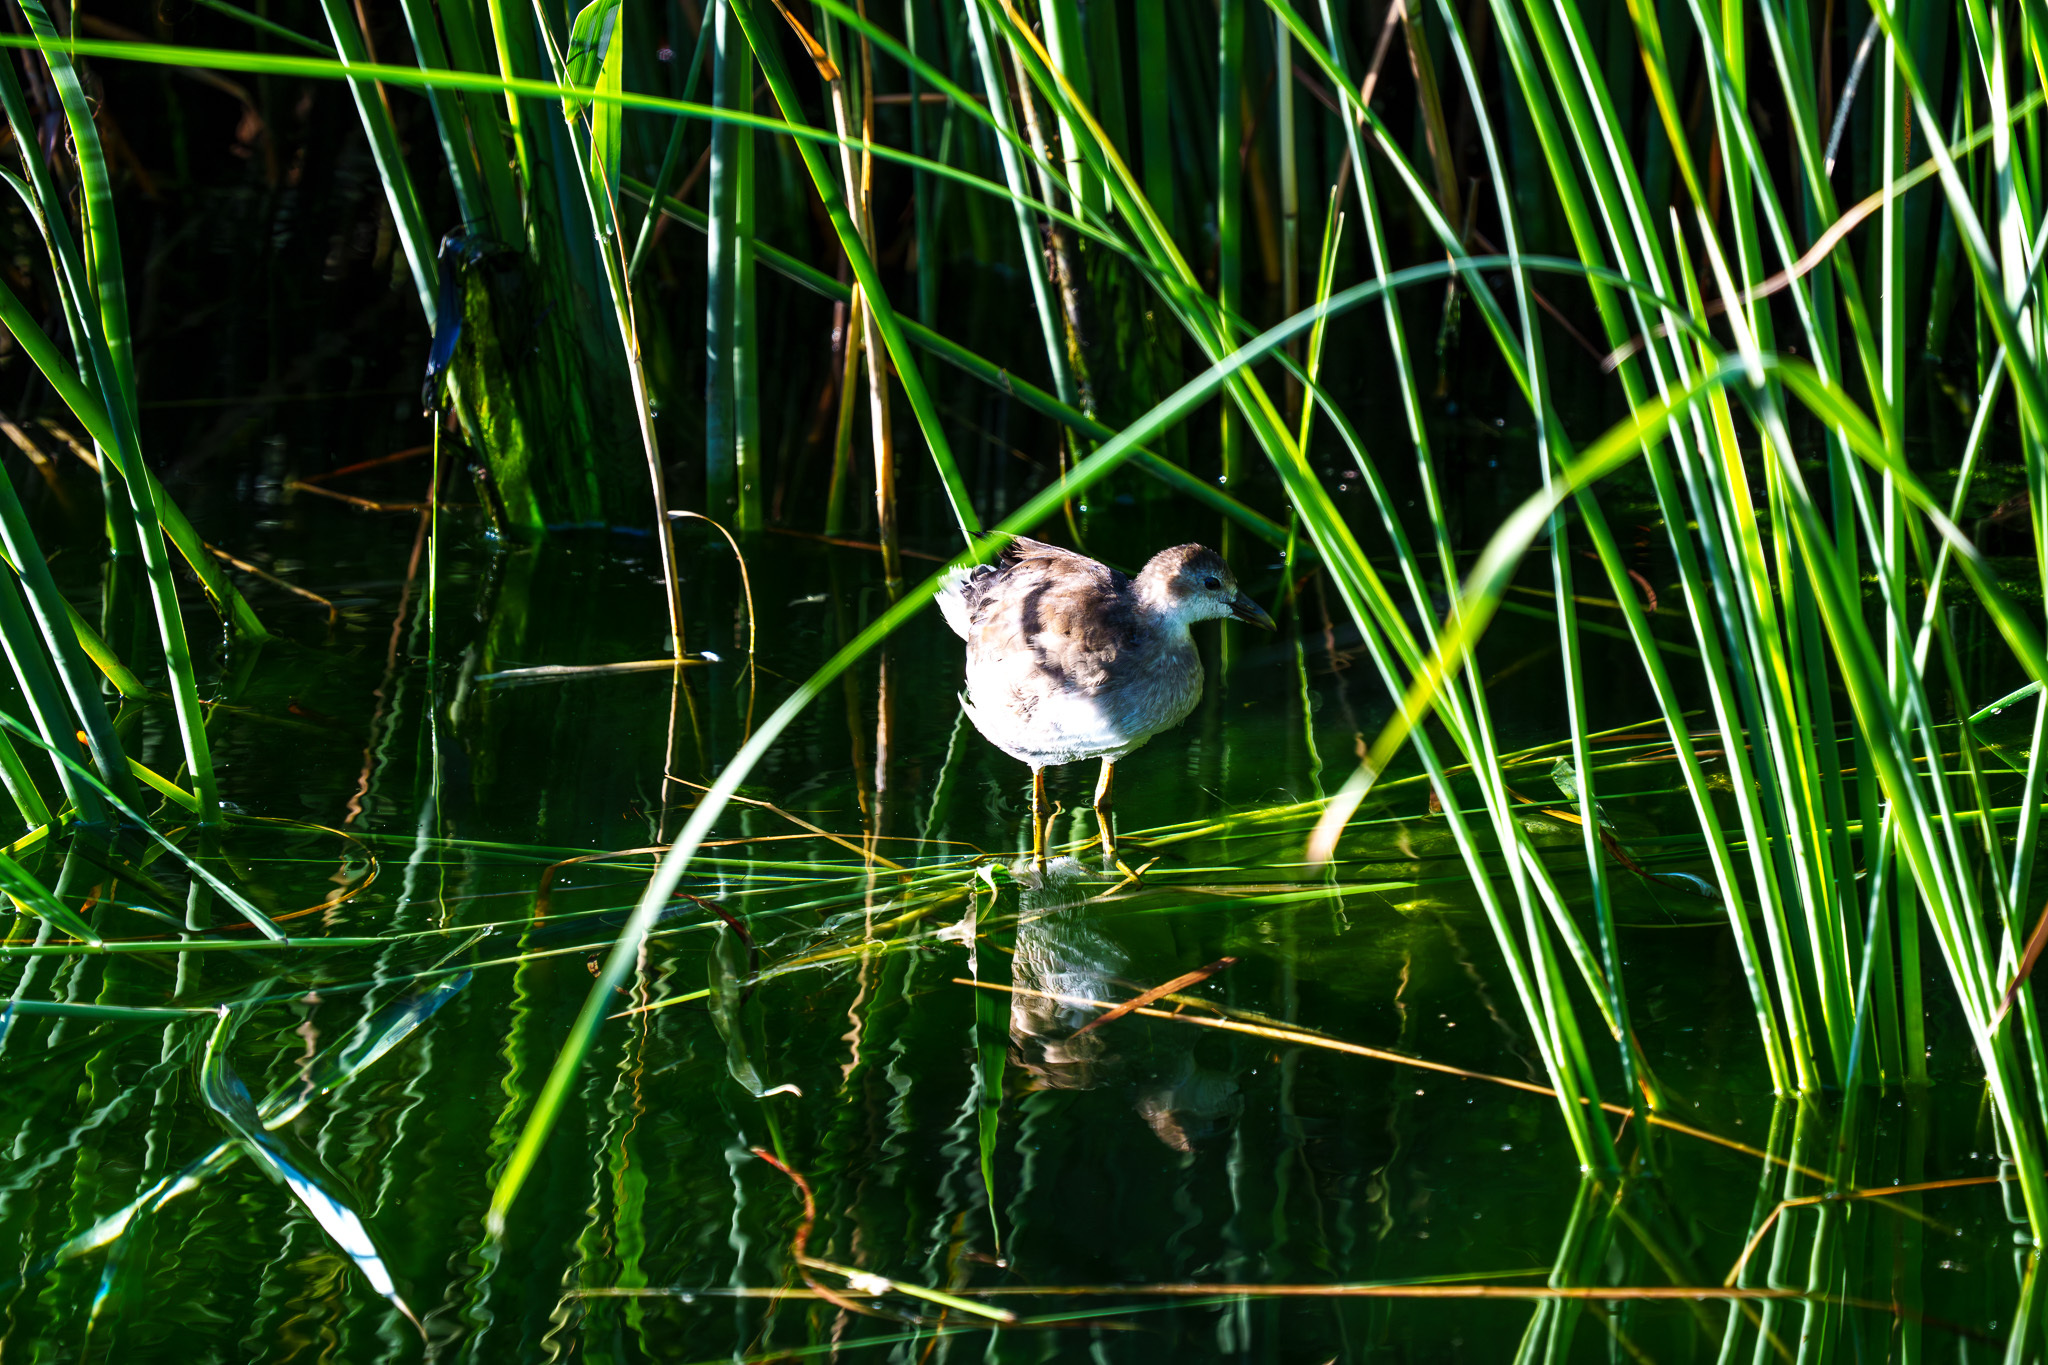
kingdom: Animalia
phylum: Chordata
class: Aves
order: Gruiformes
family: Rallidae
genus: Gallinula
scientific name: Gallinula chloropus
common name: Common moorhen
